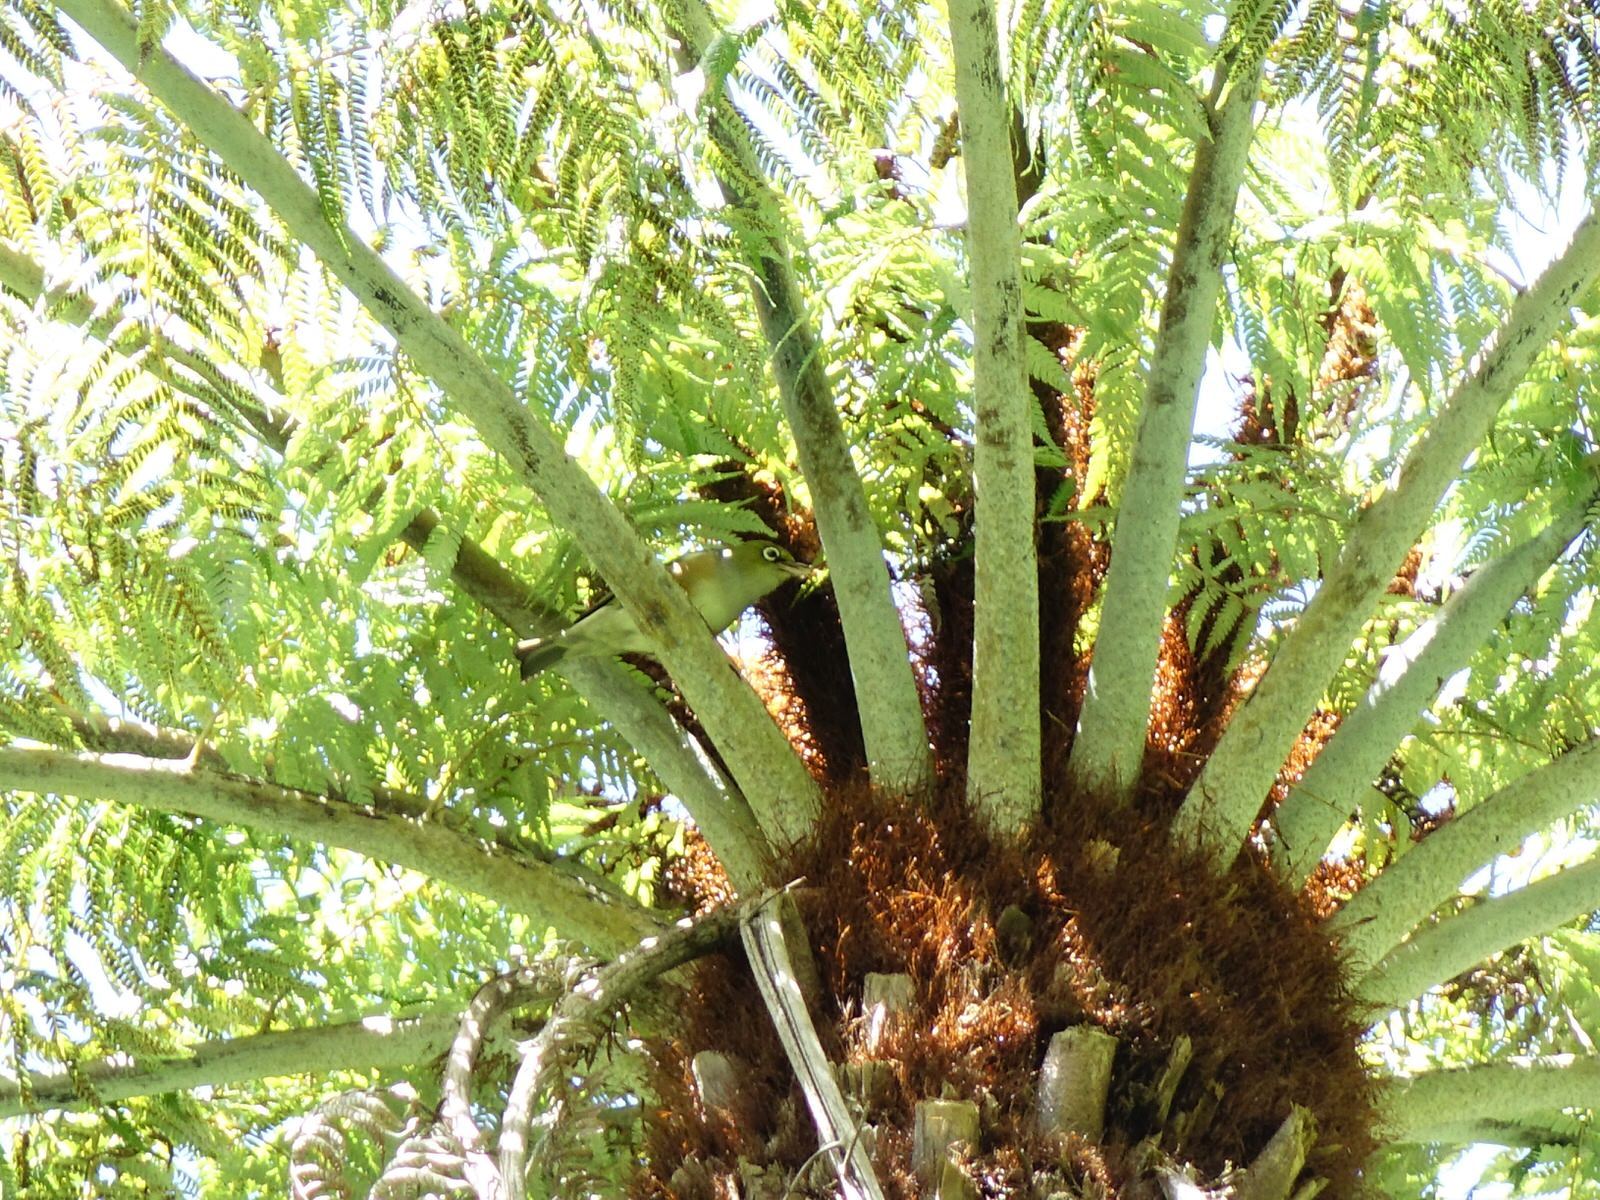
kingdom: Animalia
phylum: Chordata
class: Aves
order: Passeriformes
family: Zosteropidae
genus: Zosterops
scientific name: Zosterops lateralis
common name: Silvereye
